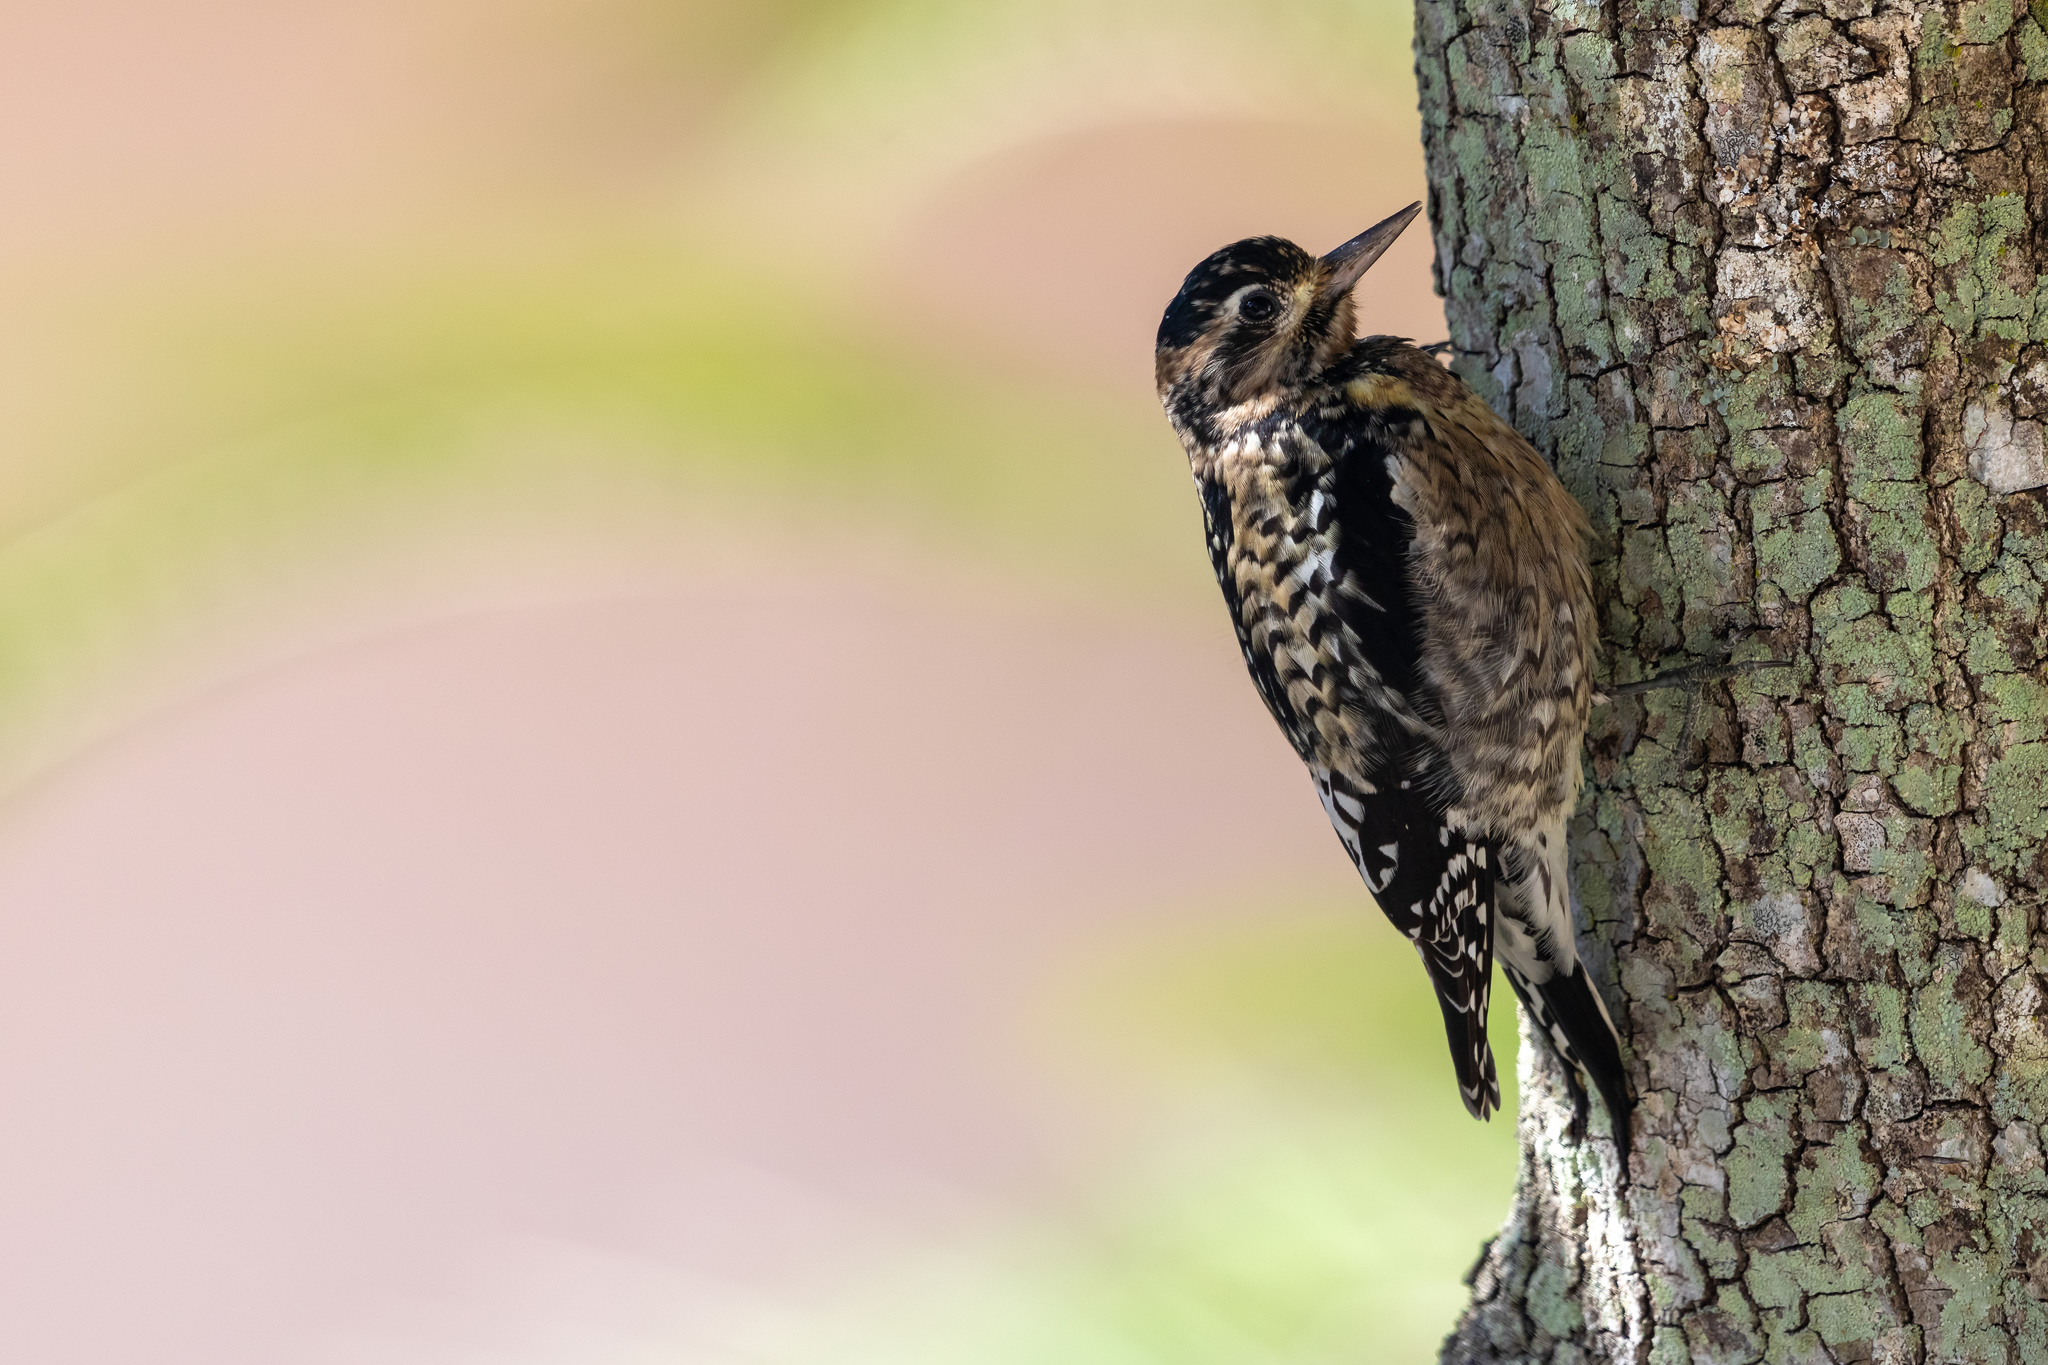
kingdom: Animalia
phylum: Chordata
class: Aves
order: Piciformes
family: Picidae
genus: Sphyrapicus
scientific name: Sphyrapicus varius
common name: Yellow-bellied sapsucker
